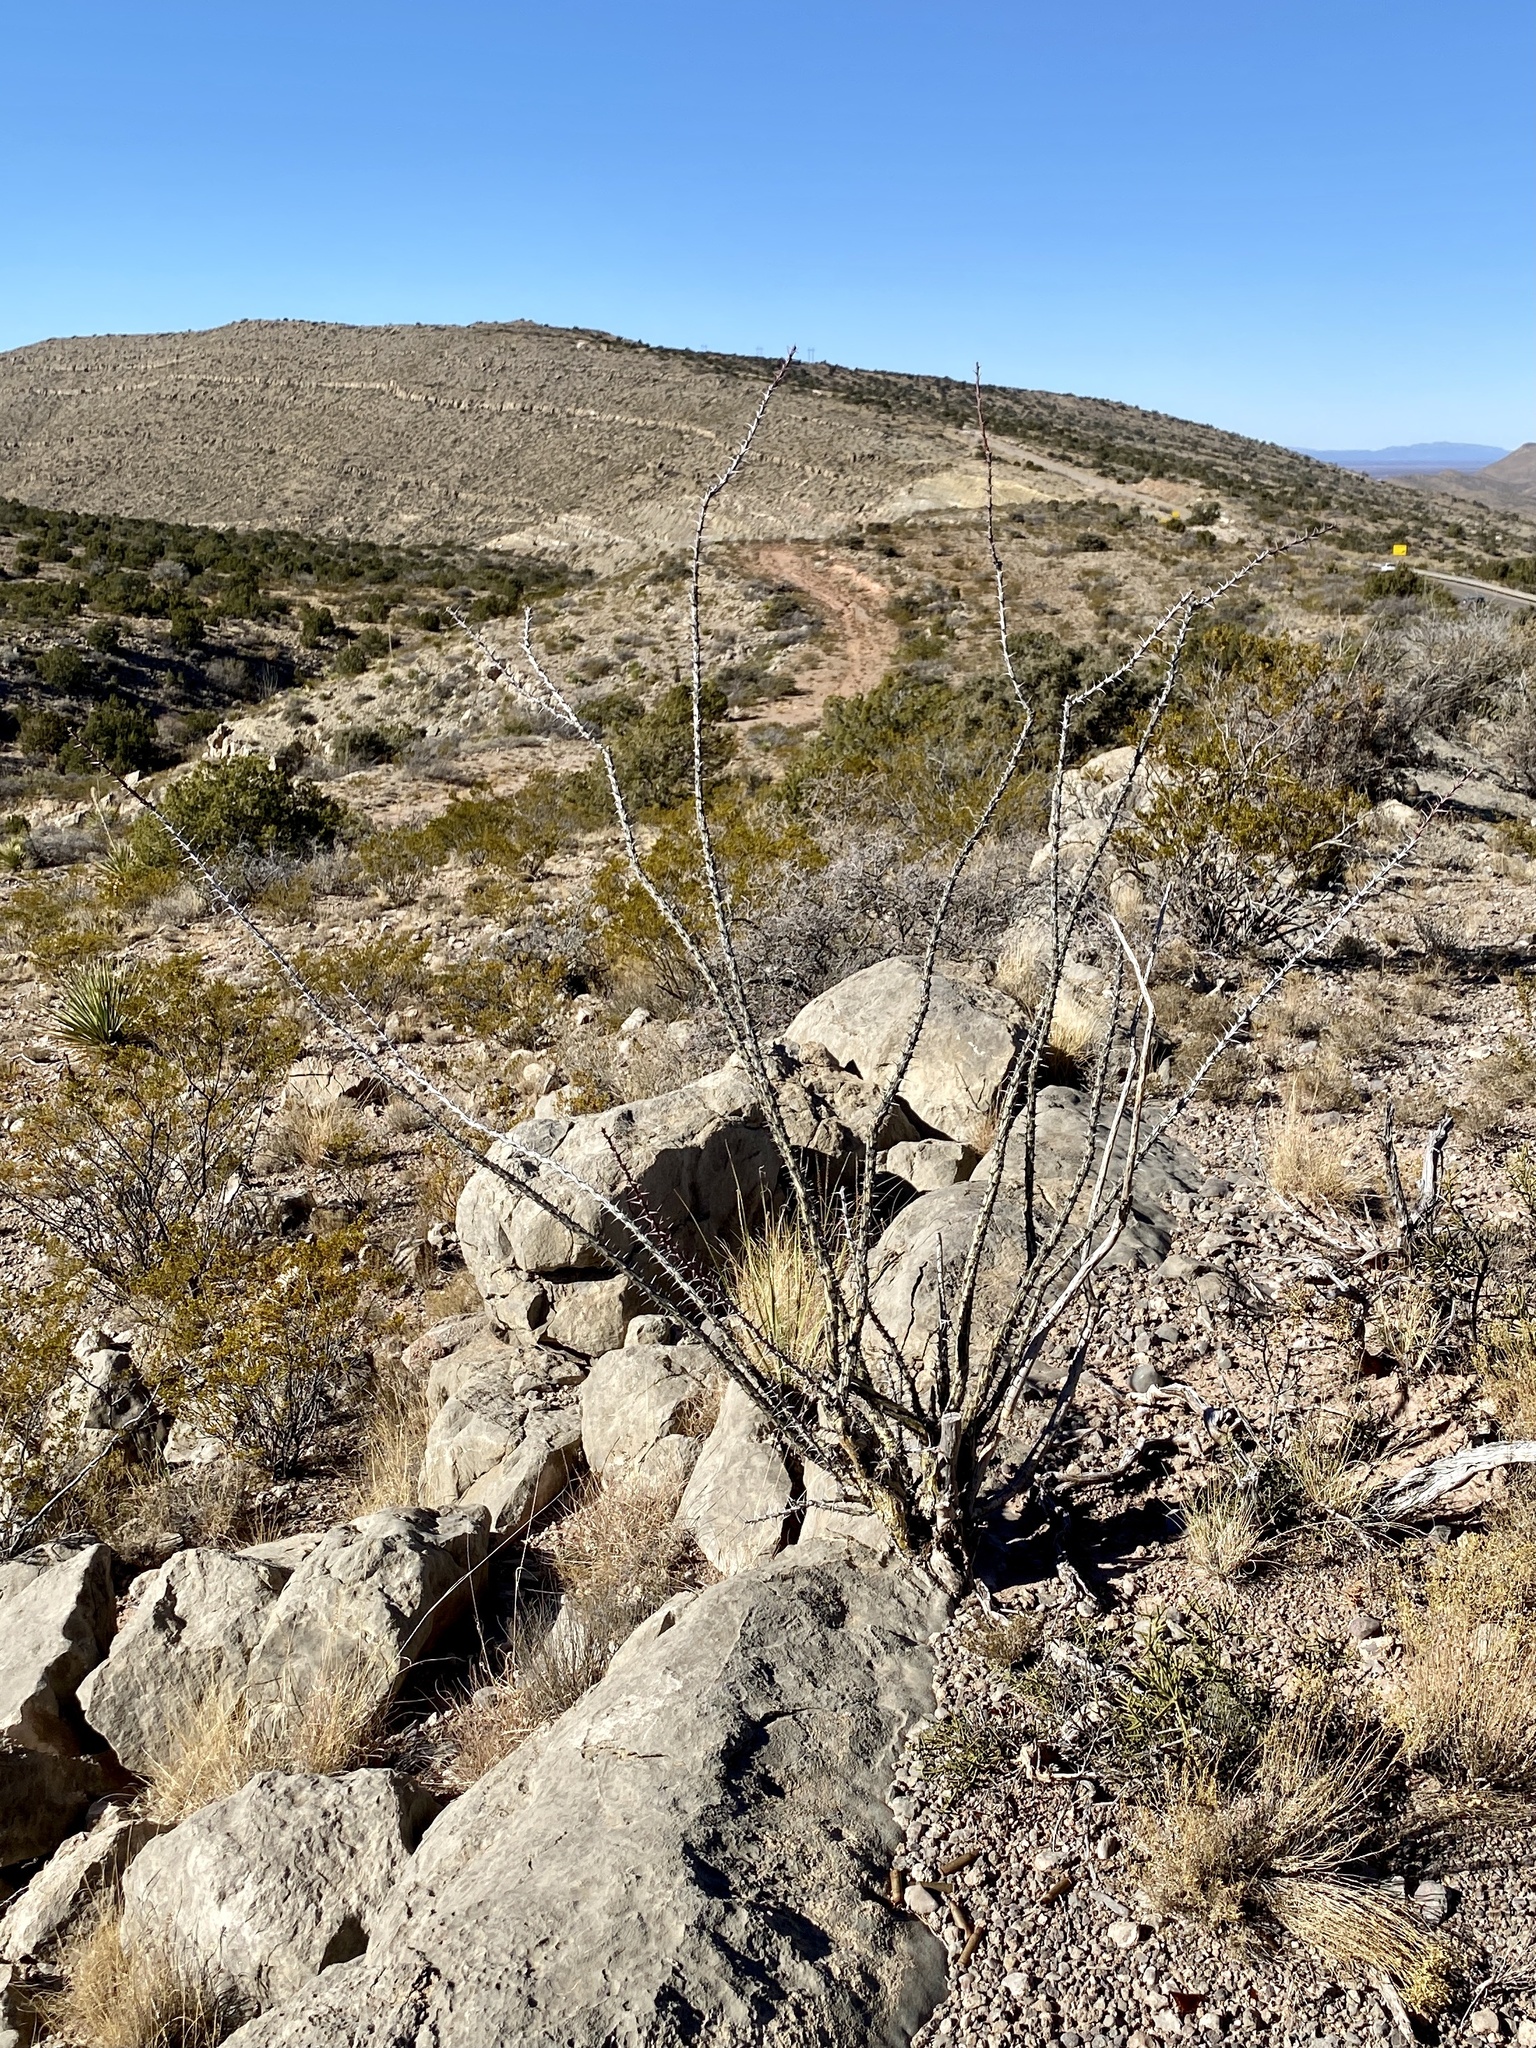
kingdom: Plantae
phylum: Tracheophyta
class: Magnoliopsida
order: Ericales
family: Fouquieriaceae
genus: Fouquieria
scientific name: Fouquieria splendens
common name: Vine-cactus
